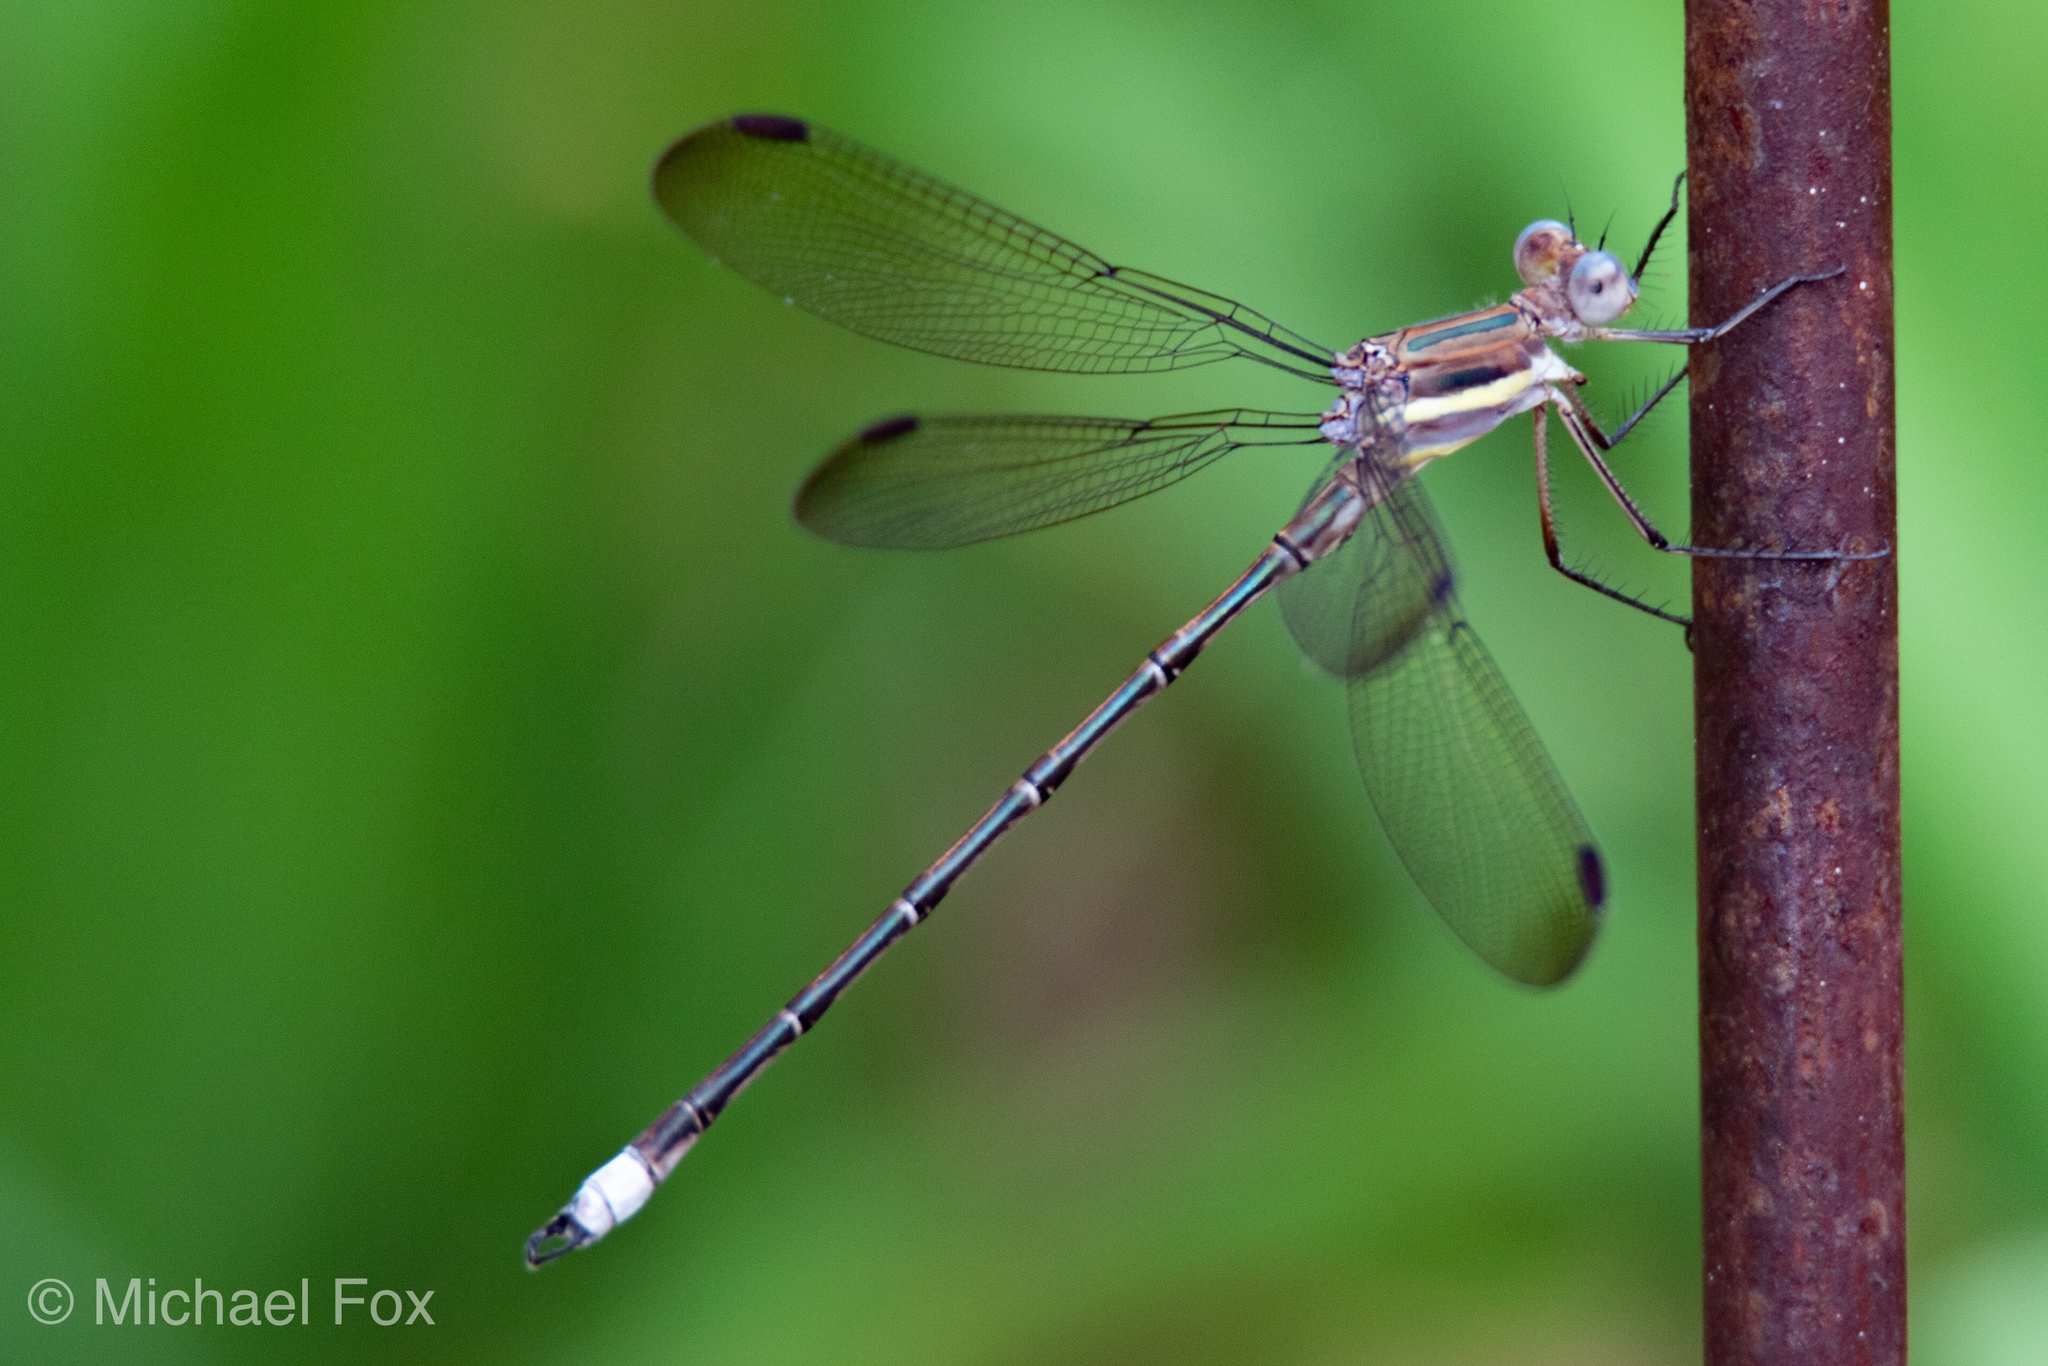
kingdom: Animalia
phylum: Arthropoda
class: Insecta
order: Odonata
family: Lestidae
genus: Archilestes
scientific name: Archilestes grandis
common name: Great spreadwing
